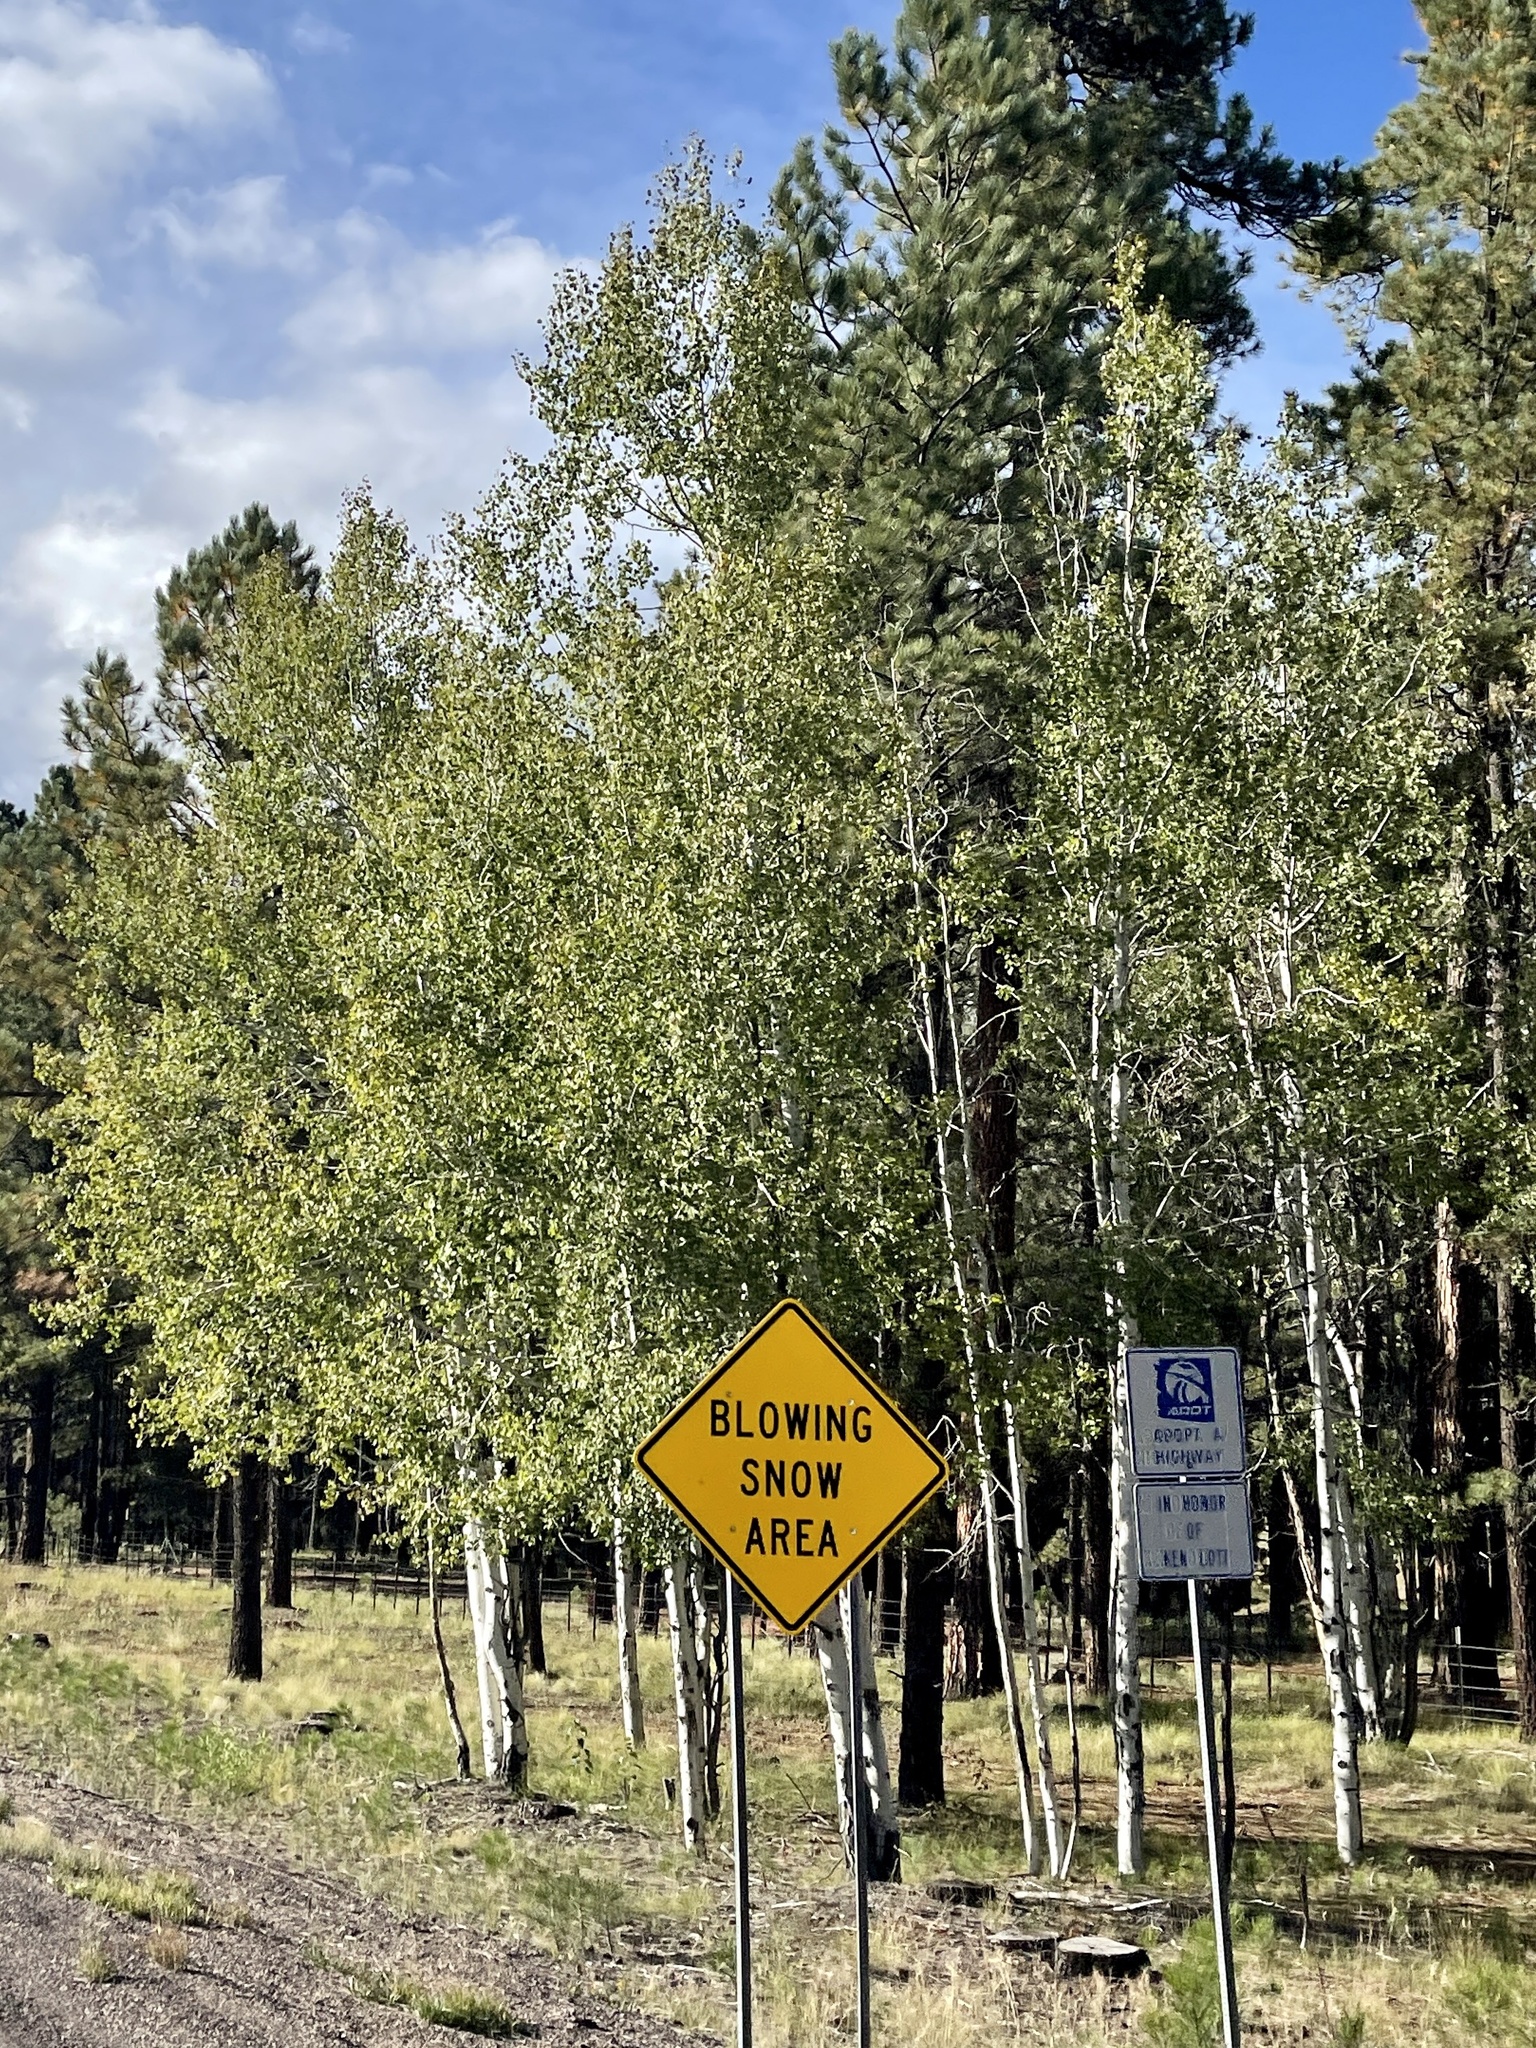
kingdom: Plantae
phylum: Tracheophyta
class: Magnoliopsida
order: Malpighiales
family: Salicaceae
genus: Populus
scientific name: Populus tremuloides
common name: Quaking aspen
